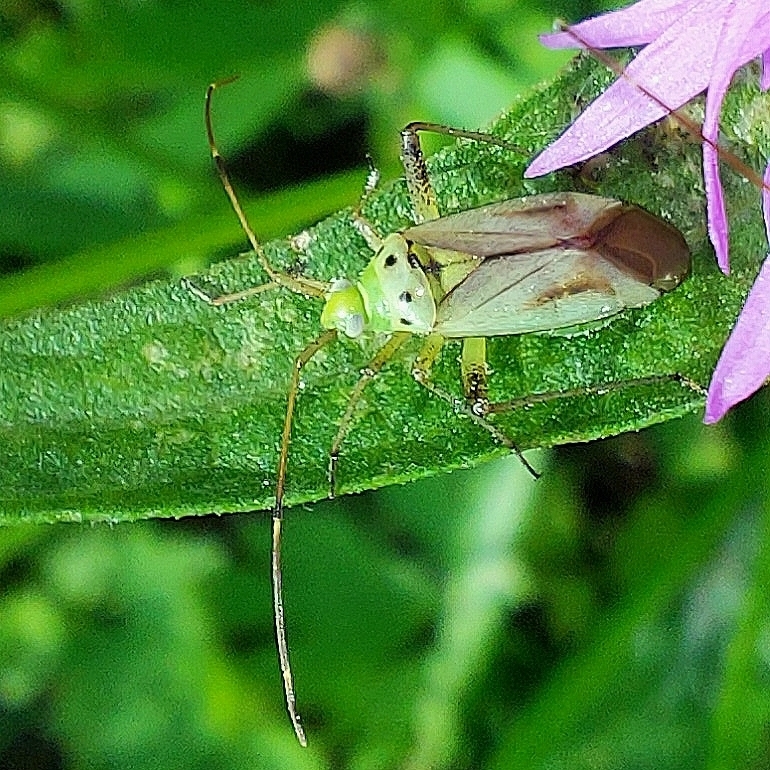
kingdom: Animalia
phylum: Arthropoda
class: Insecta
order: Hemiptera
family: Miridae
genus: Adelphocoris
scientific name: Adelphocoris quadripunctatus
